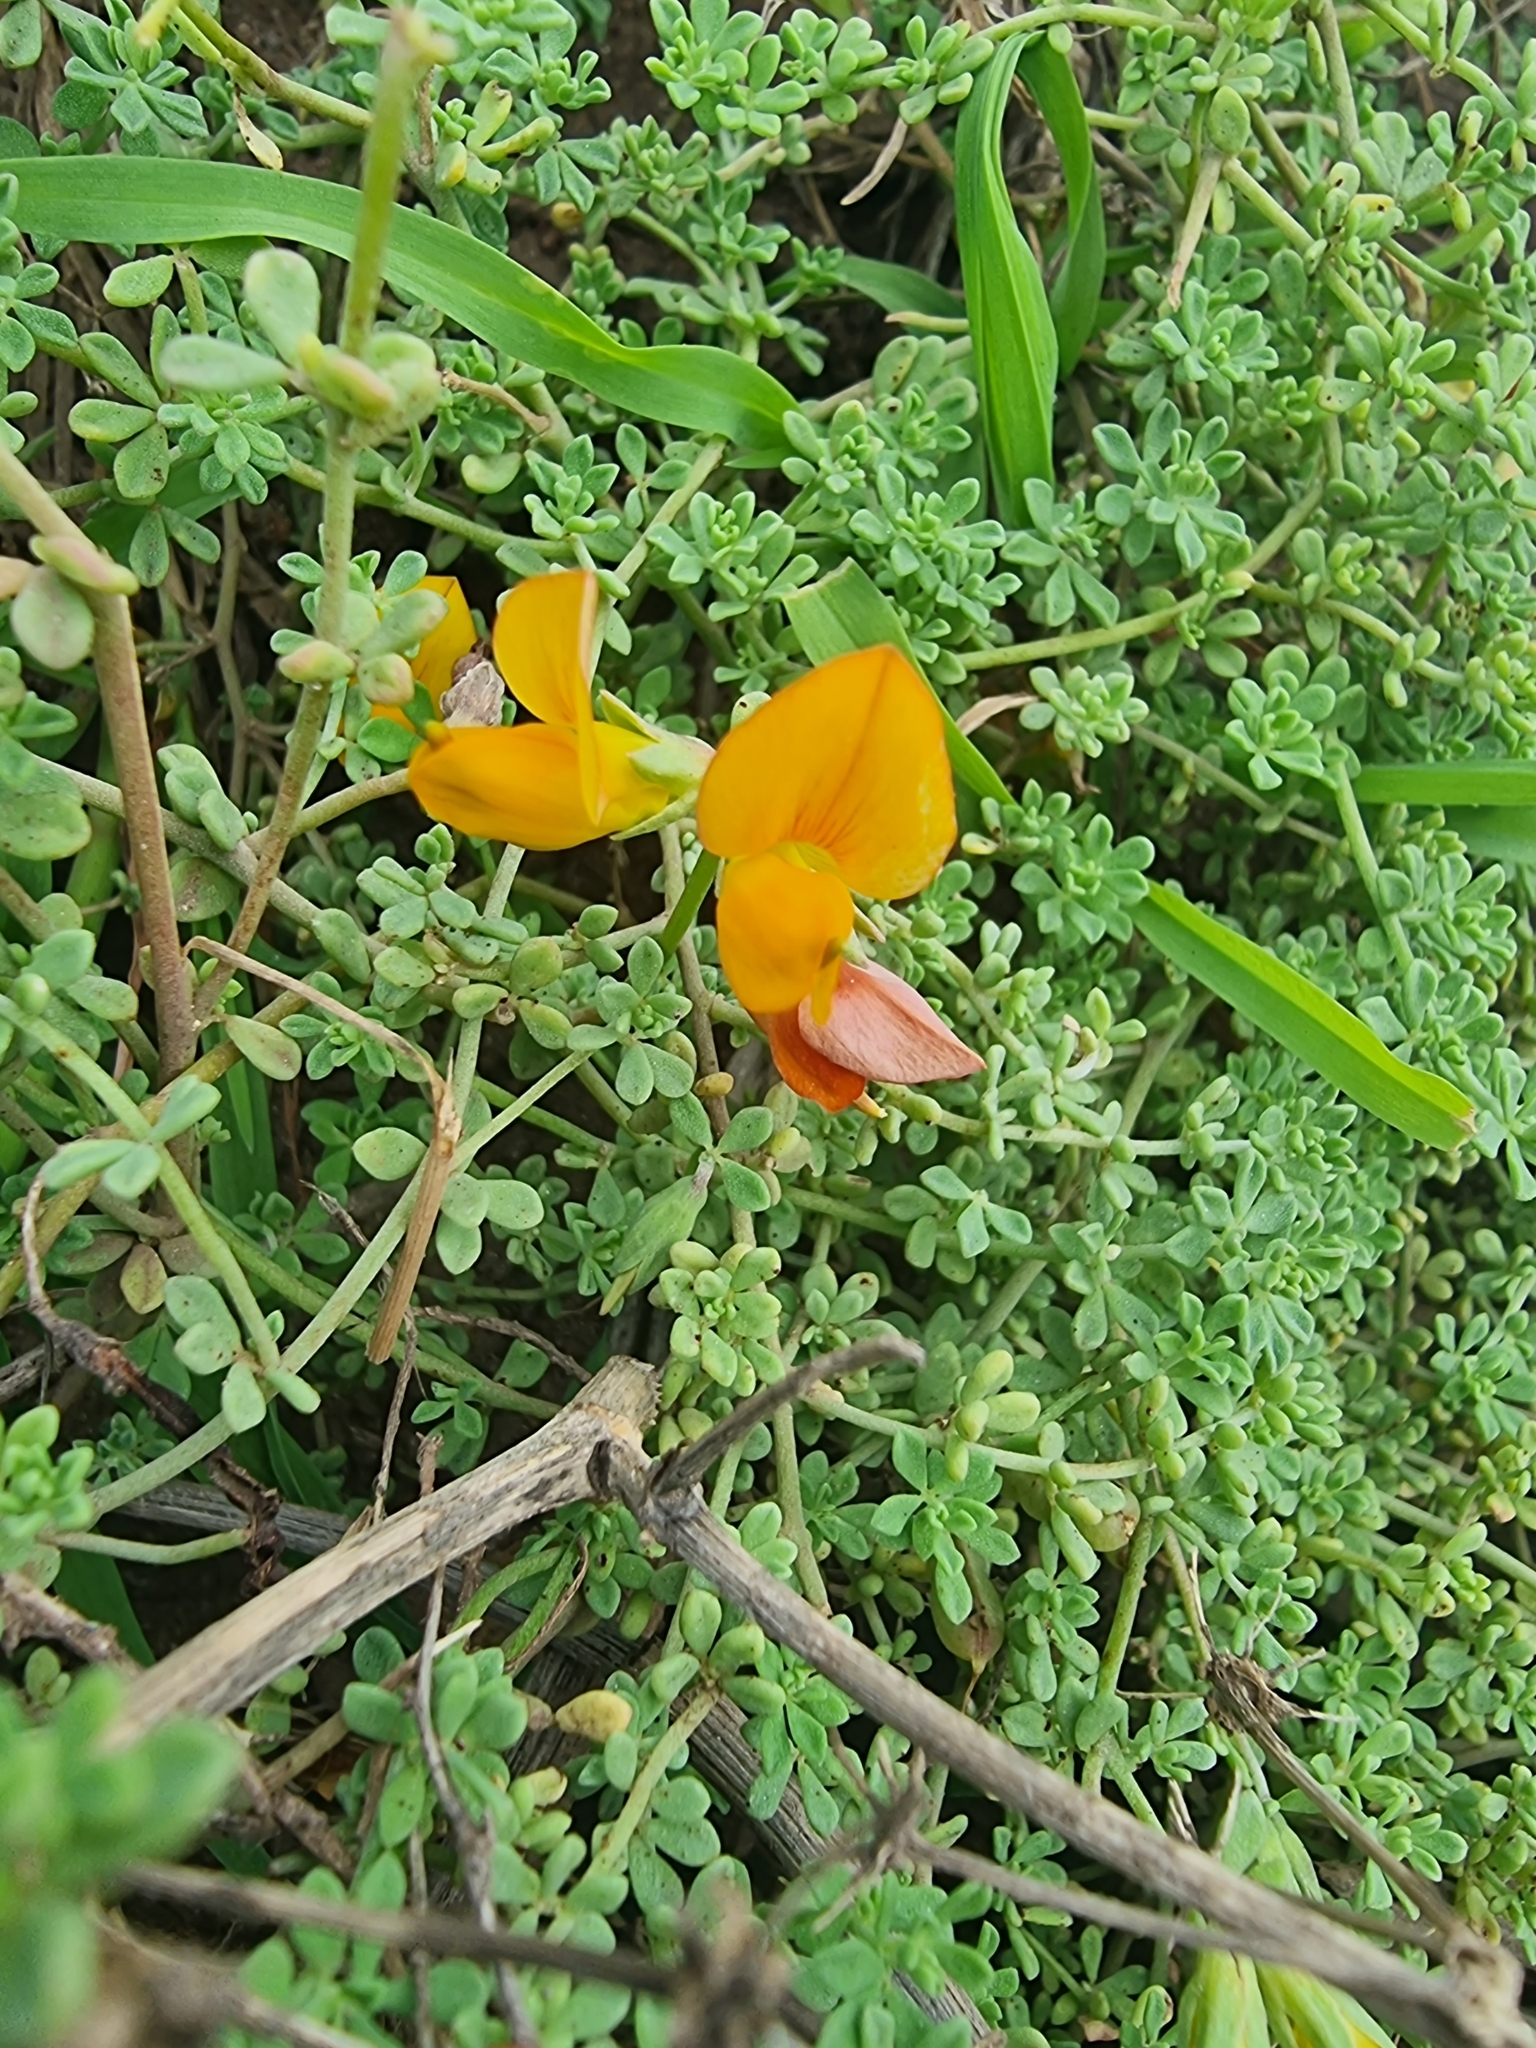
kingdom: Plantae
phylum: Tracheophyta
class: Magnoliopsida
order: Fabales
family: Fabaceae
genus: Lotus
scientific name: Lotus glaucus
